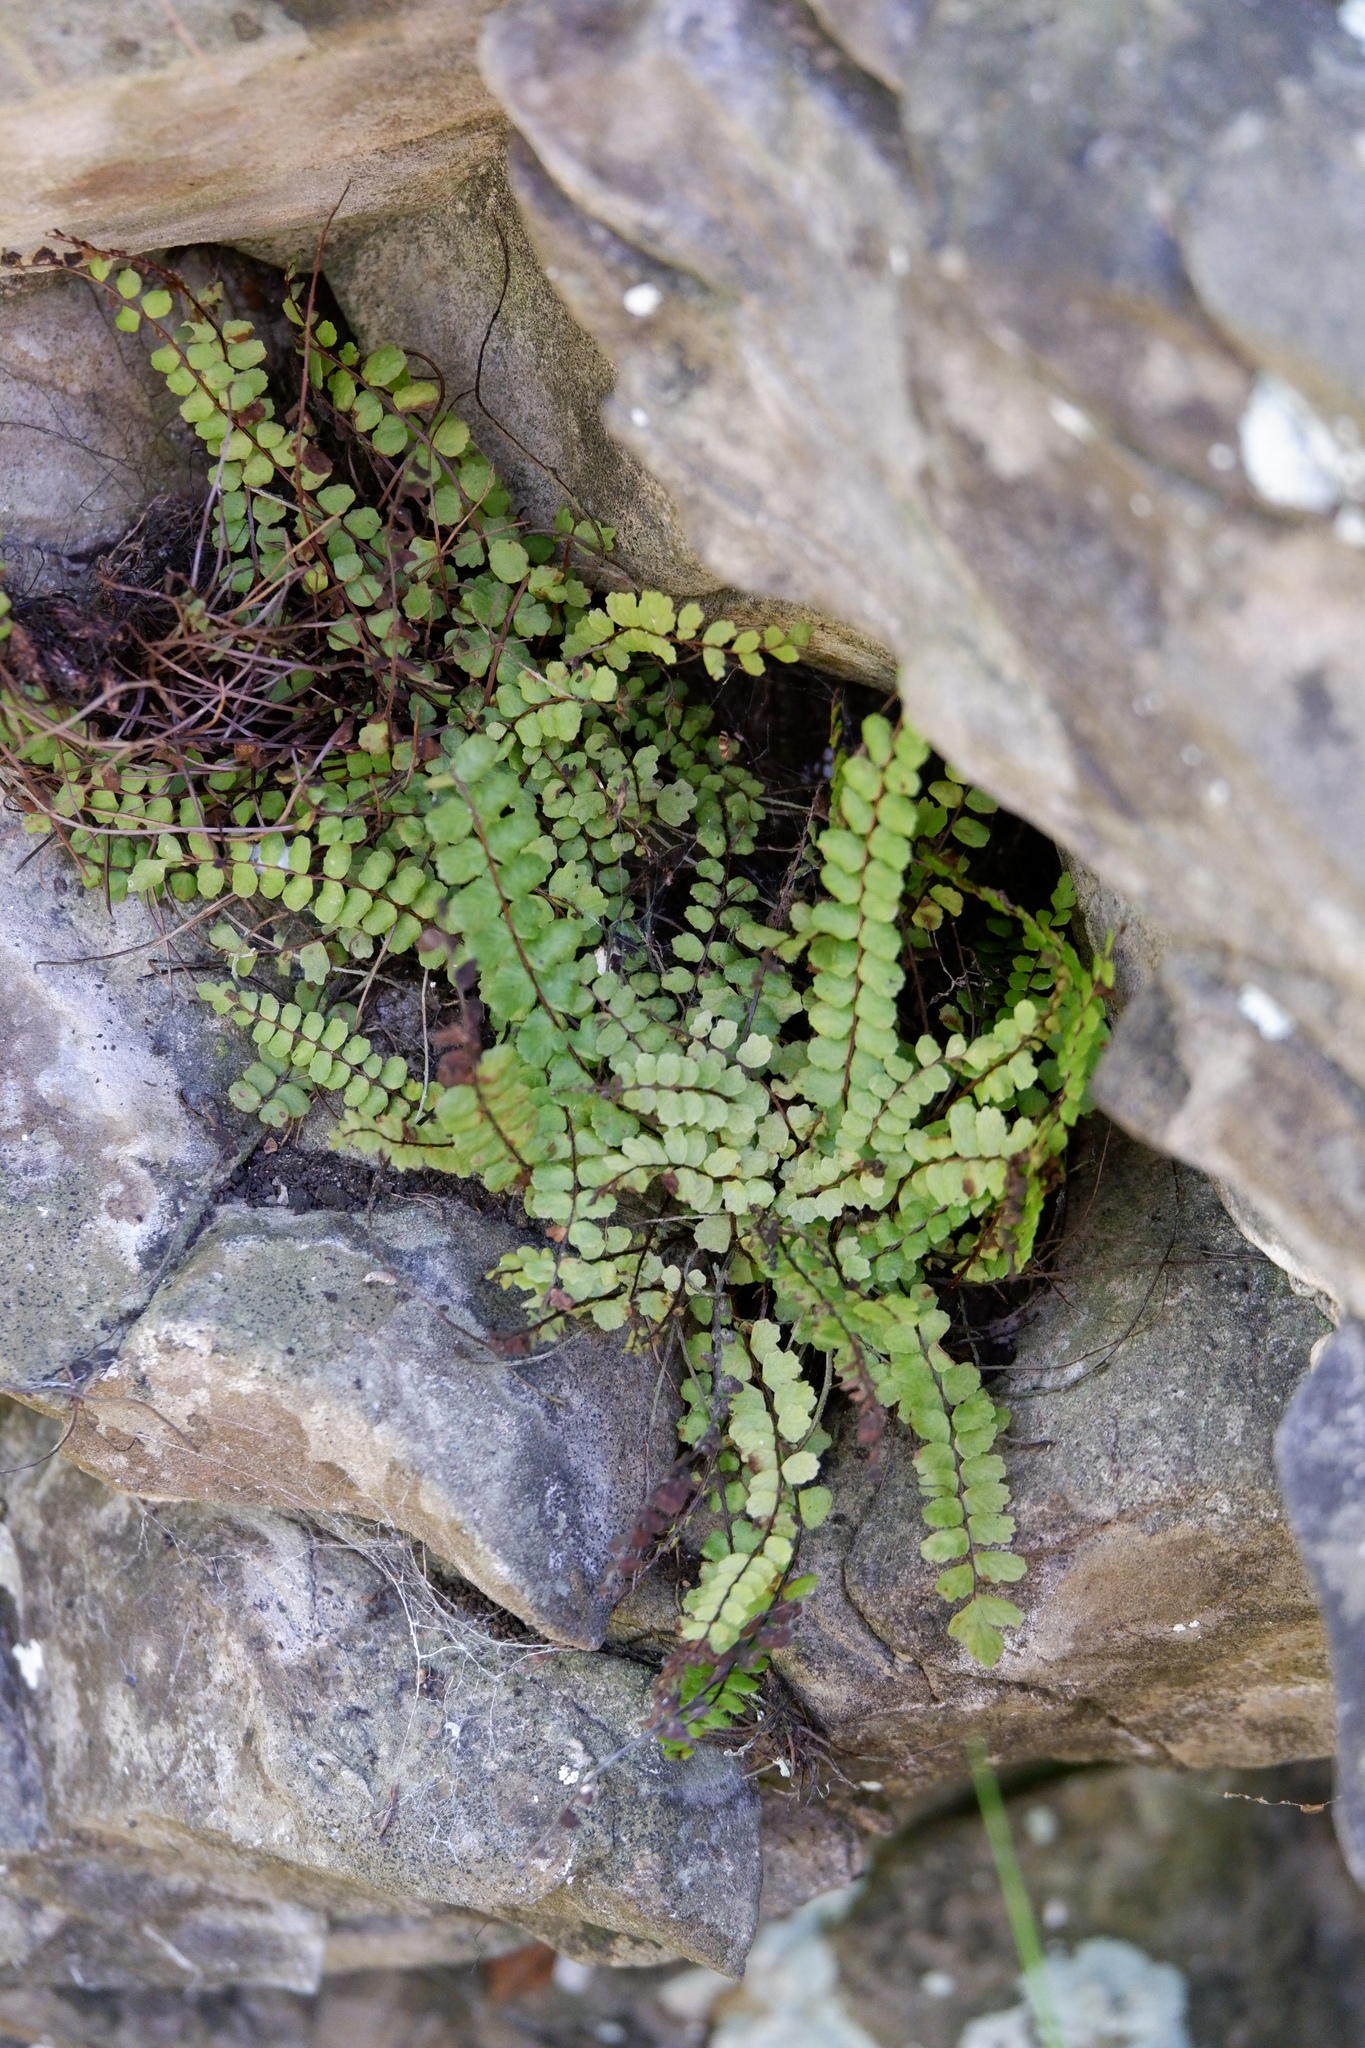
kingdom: Plantae
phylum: Tracheophyta
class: Polypodiopsida
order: Polypodiales
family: Aspleniaceae
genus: Asplenium
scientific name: Asplenium trichomanes
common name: Maidenhair spleenwort
